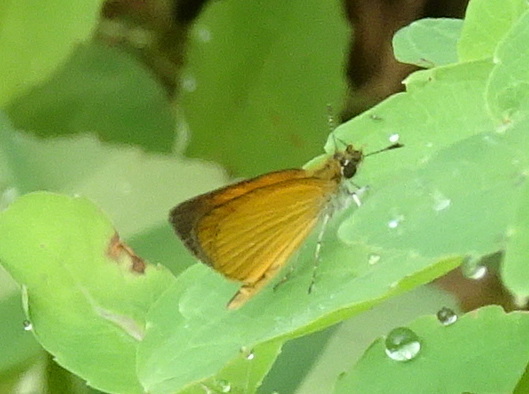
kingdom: Animalia
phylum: Arthropoda
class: Insecta
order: Lepidoptera
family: Hesperiidae
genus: Ancyloxypha
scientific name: Ancyloxypha numitor
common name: Least skipper
